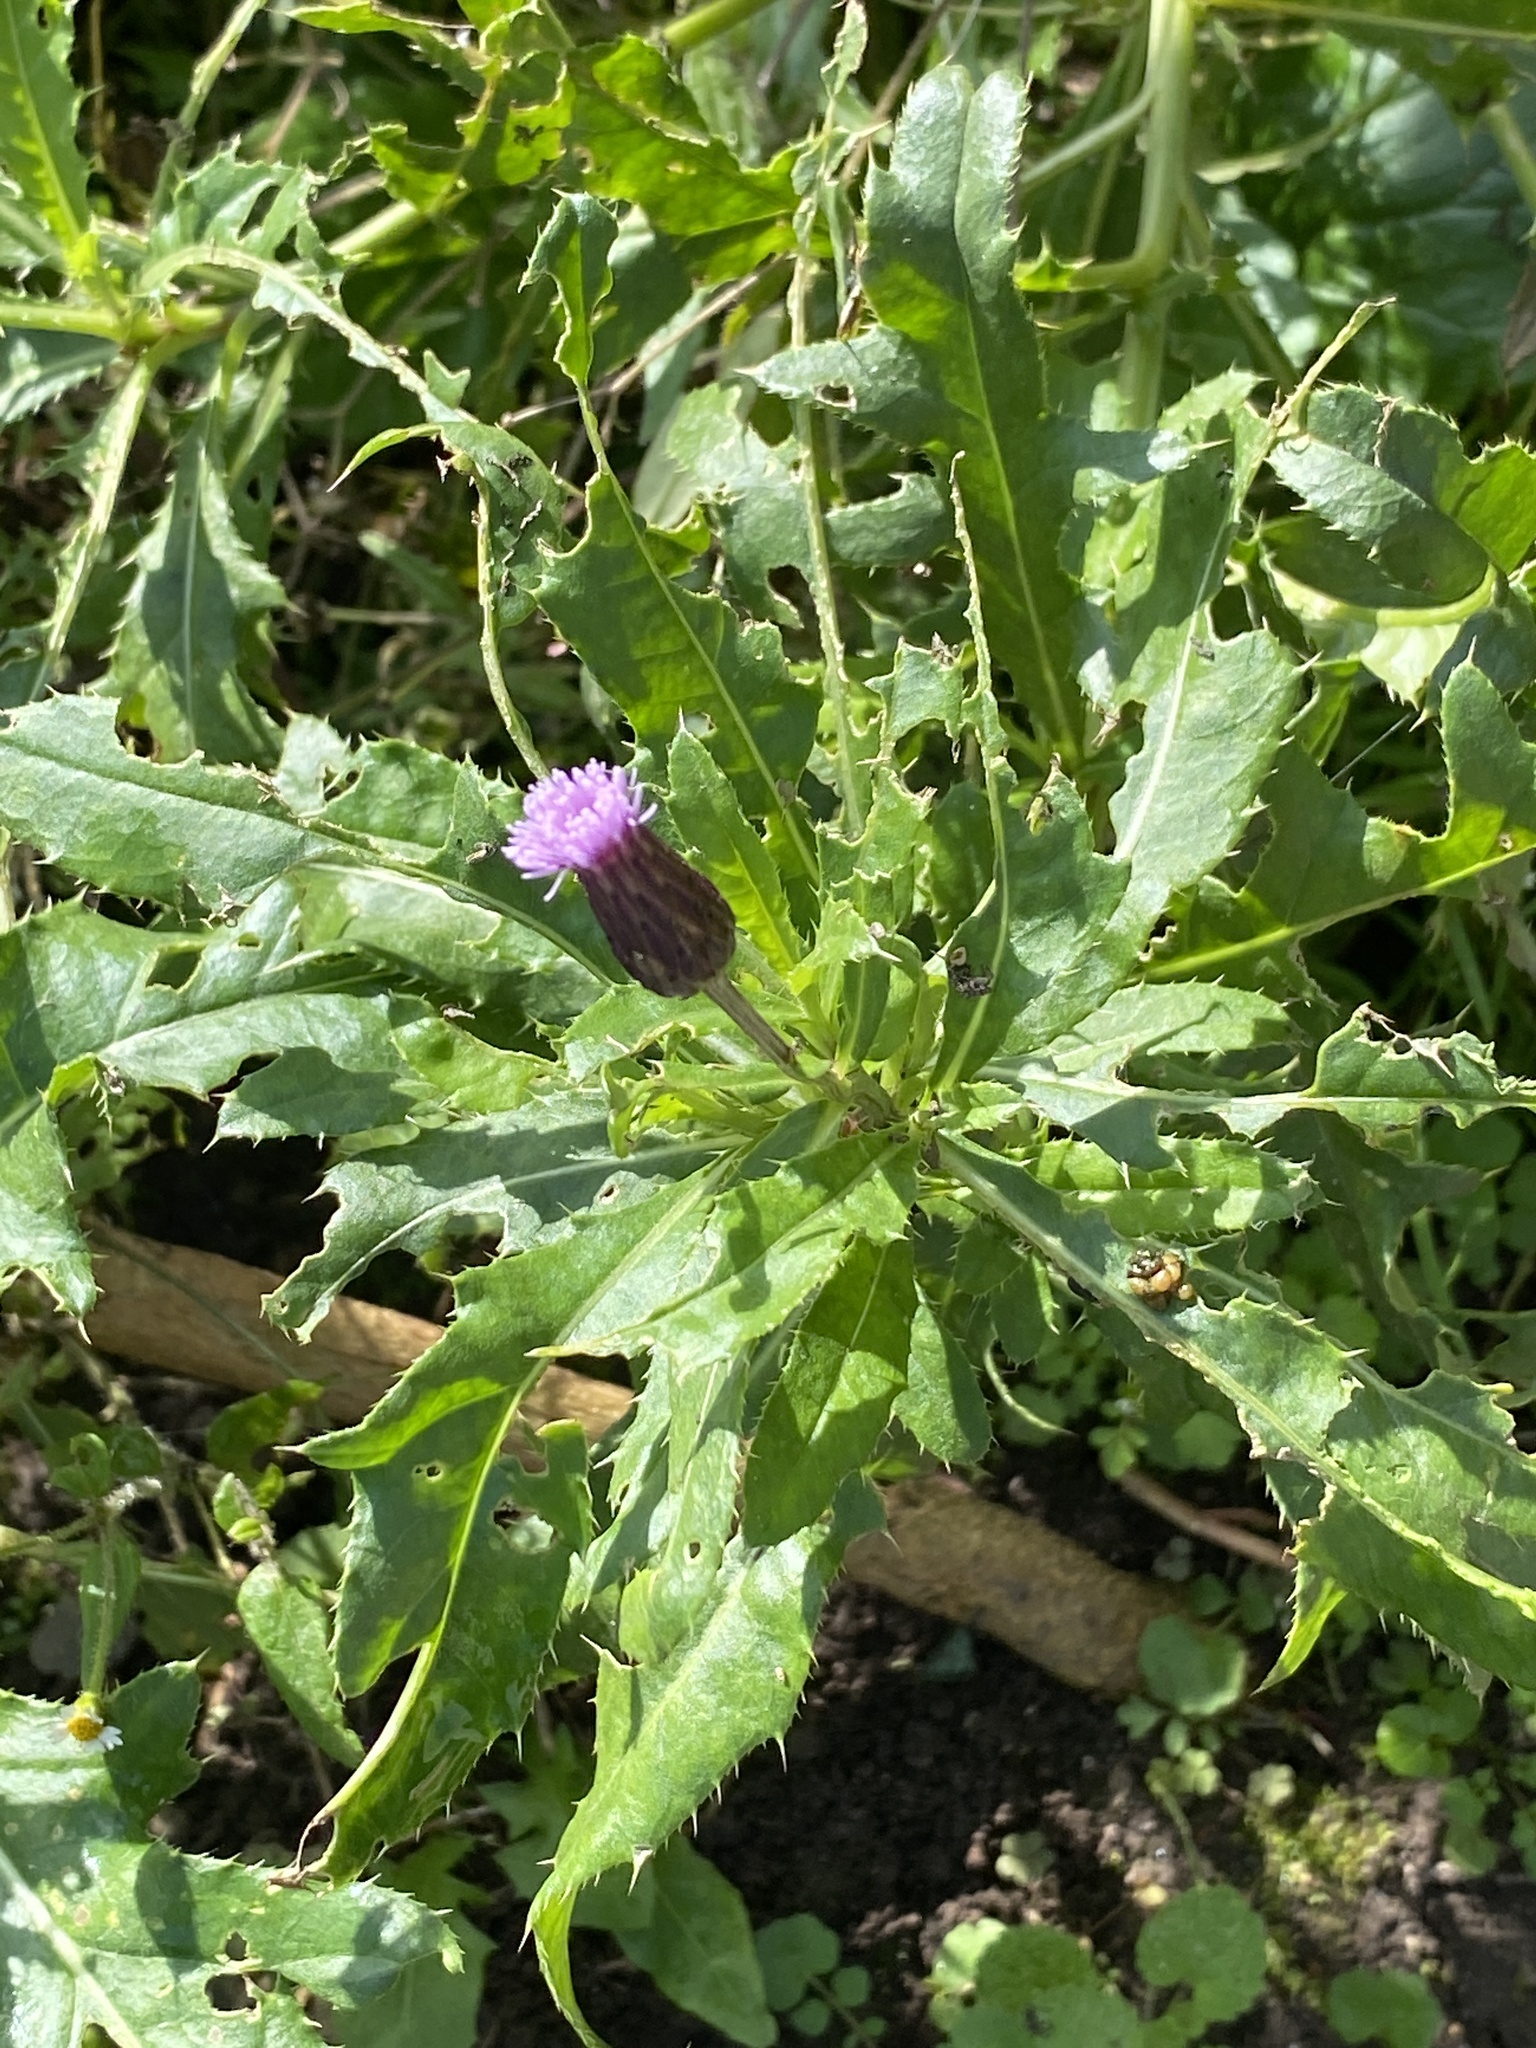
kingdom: Plantae
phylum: Tracheophyta
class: Magnoliopsida
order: Asterales
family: Asteraceae
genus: Cirsium
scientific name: Cirsium arvense
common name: Creeping thistle
